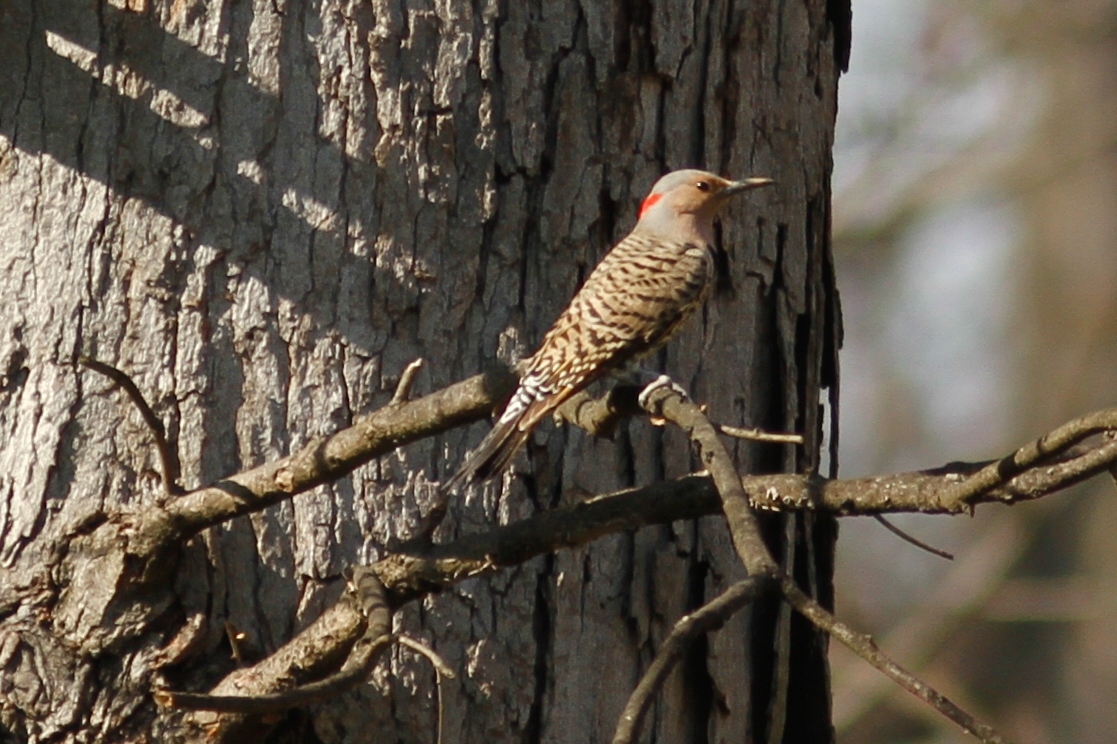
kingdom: Animalia
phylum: Chordata
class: Aves
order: Piciformes
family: Picidae
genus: Colaptes
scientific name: Colaptes auratus
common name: Northern flicker
